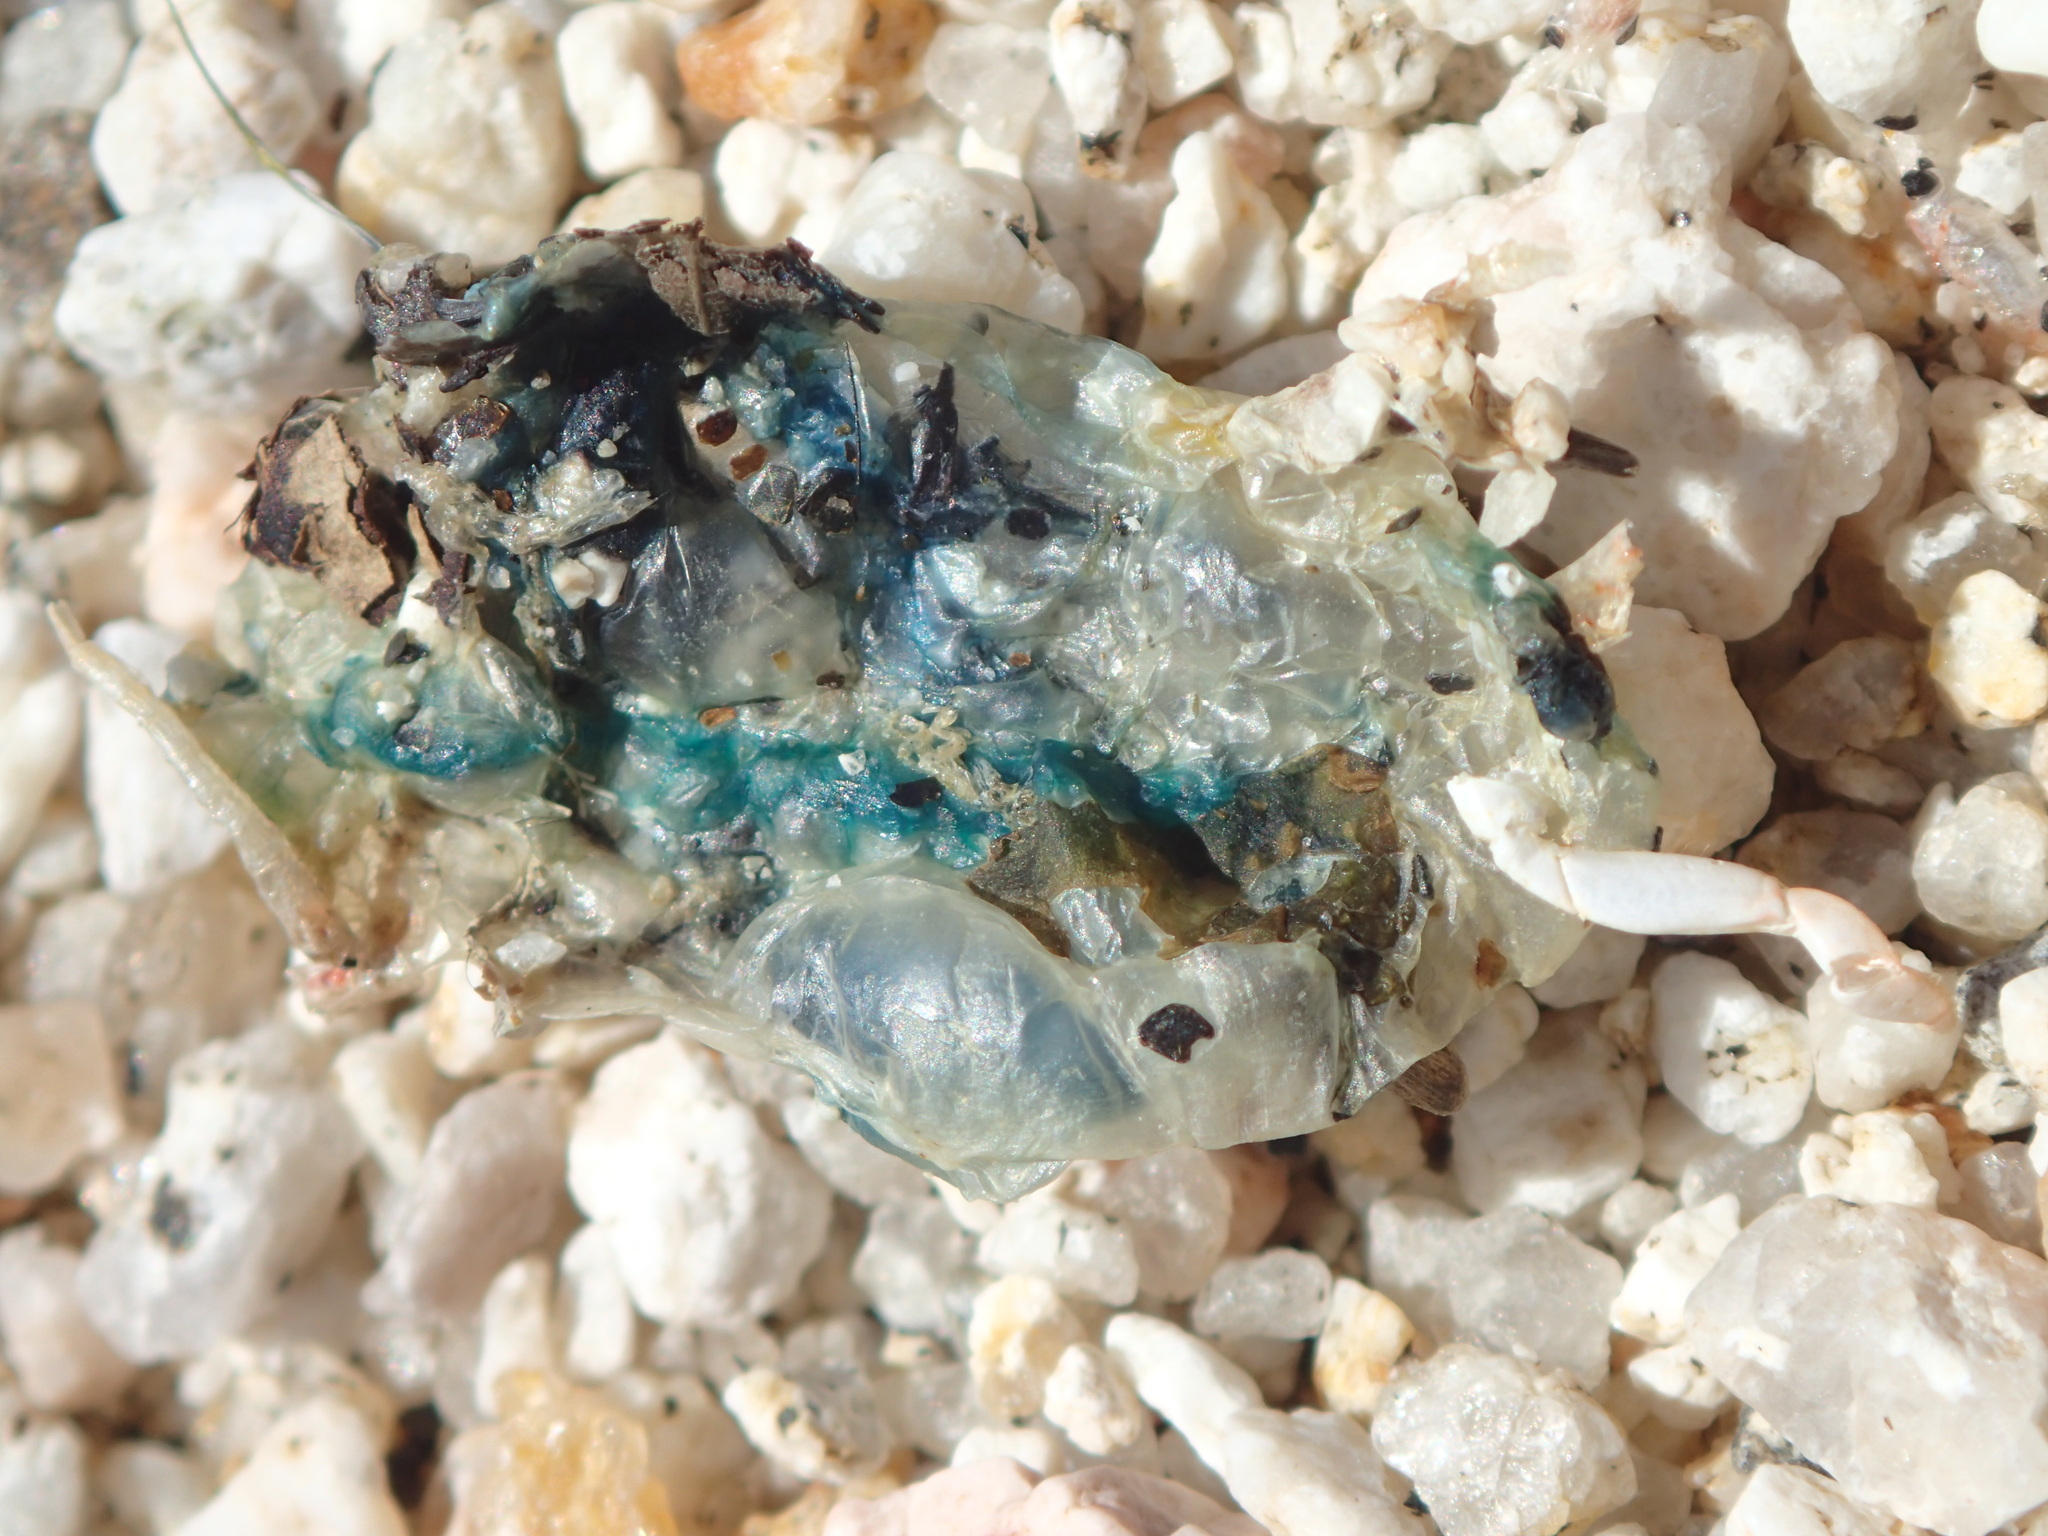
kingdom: Animalia
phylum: Cnidaria
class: Hydrozoa
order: Siphonophorae
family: Physaliidae
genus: Physalia
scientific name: Physalia physalis
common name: Portuguese man-of-war
